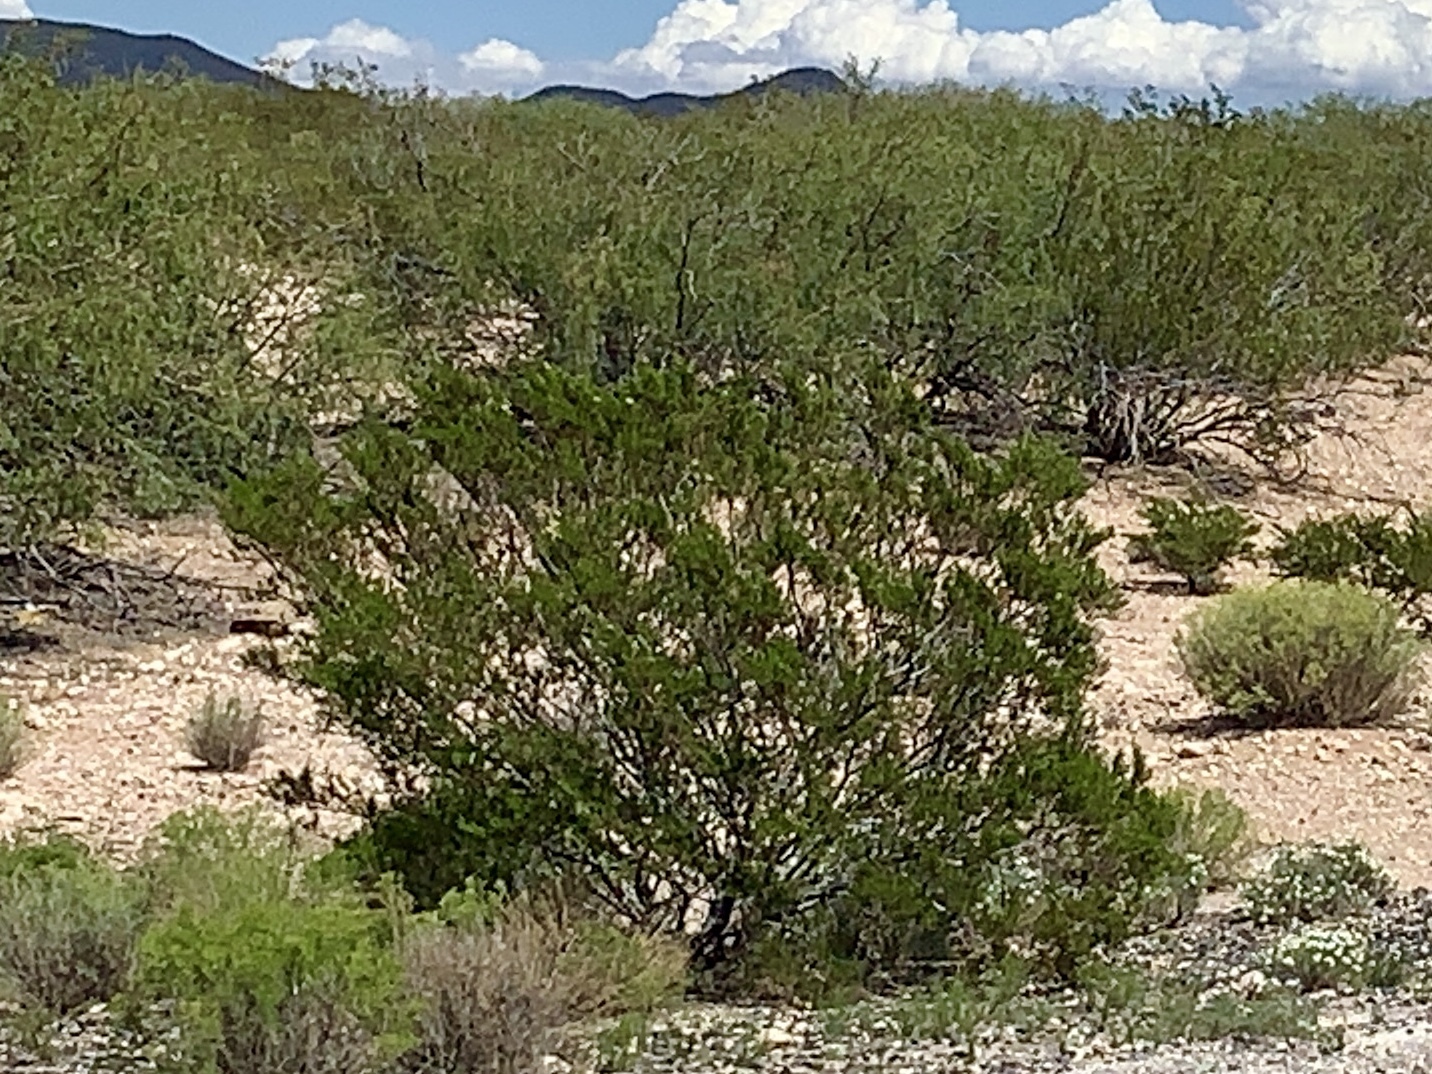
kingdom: Plantae
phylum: Tracheophyta
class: Magnoliopsida
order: Zygophyllales
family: Zygophyllaceae
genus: Larrea
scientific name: Larrea tridentata
